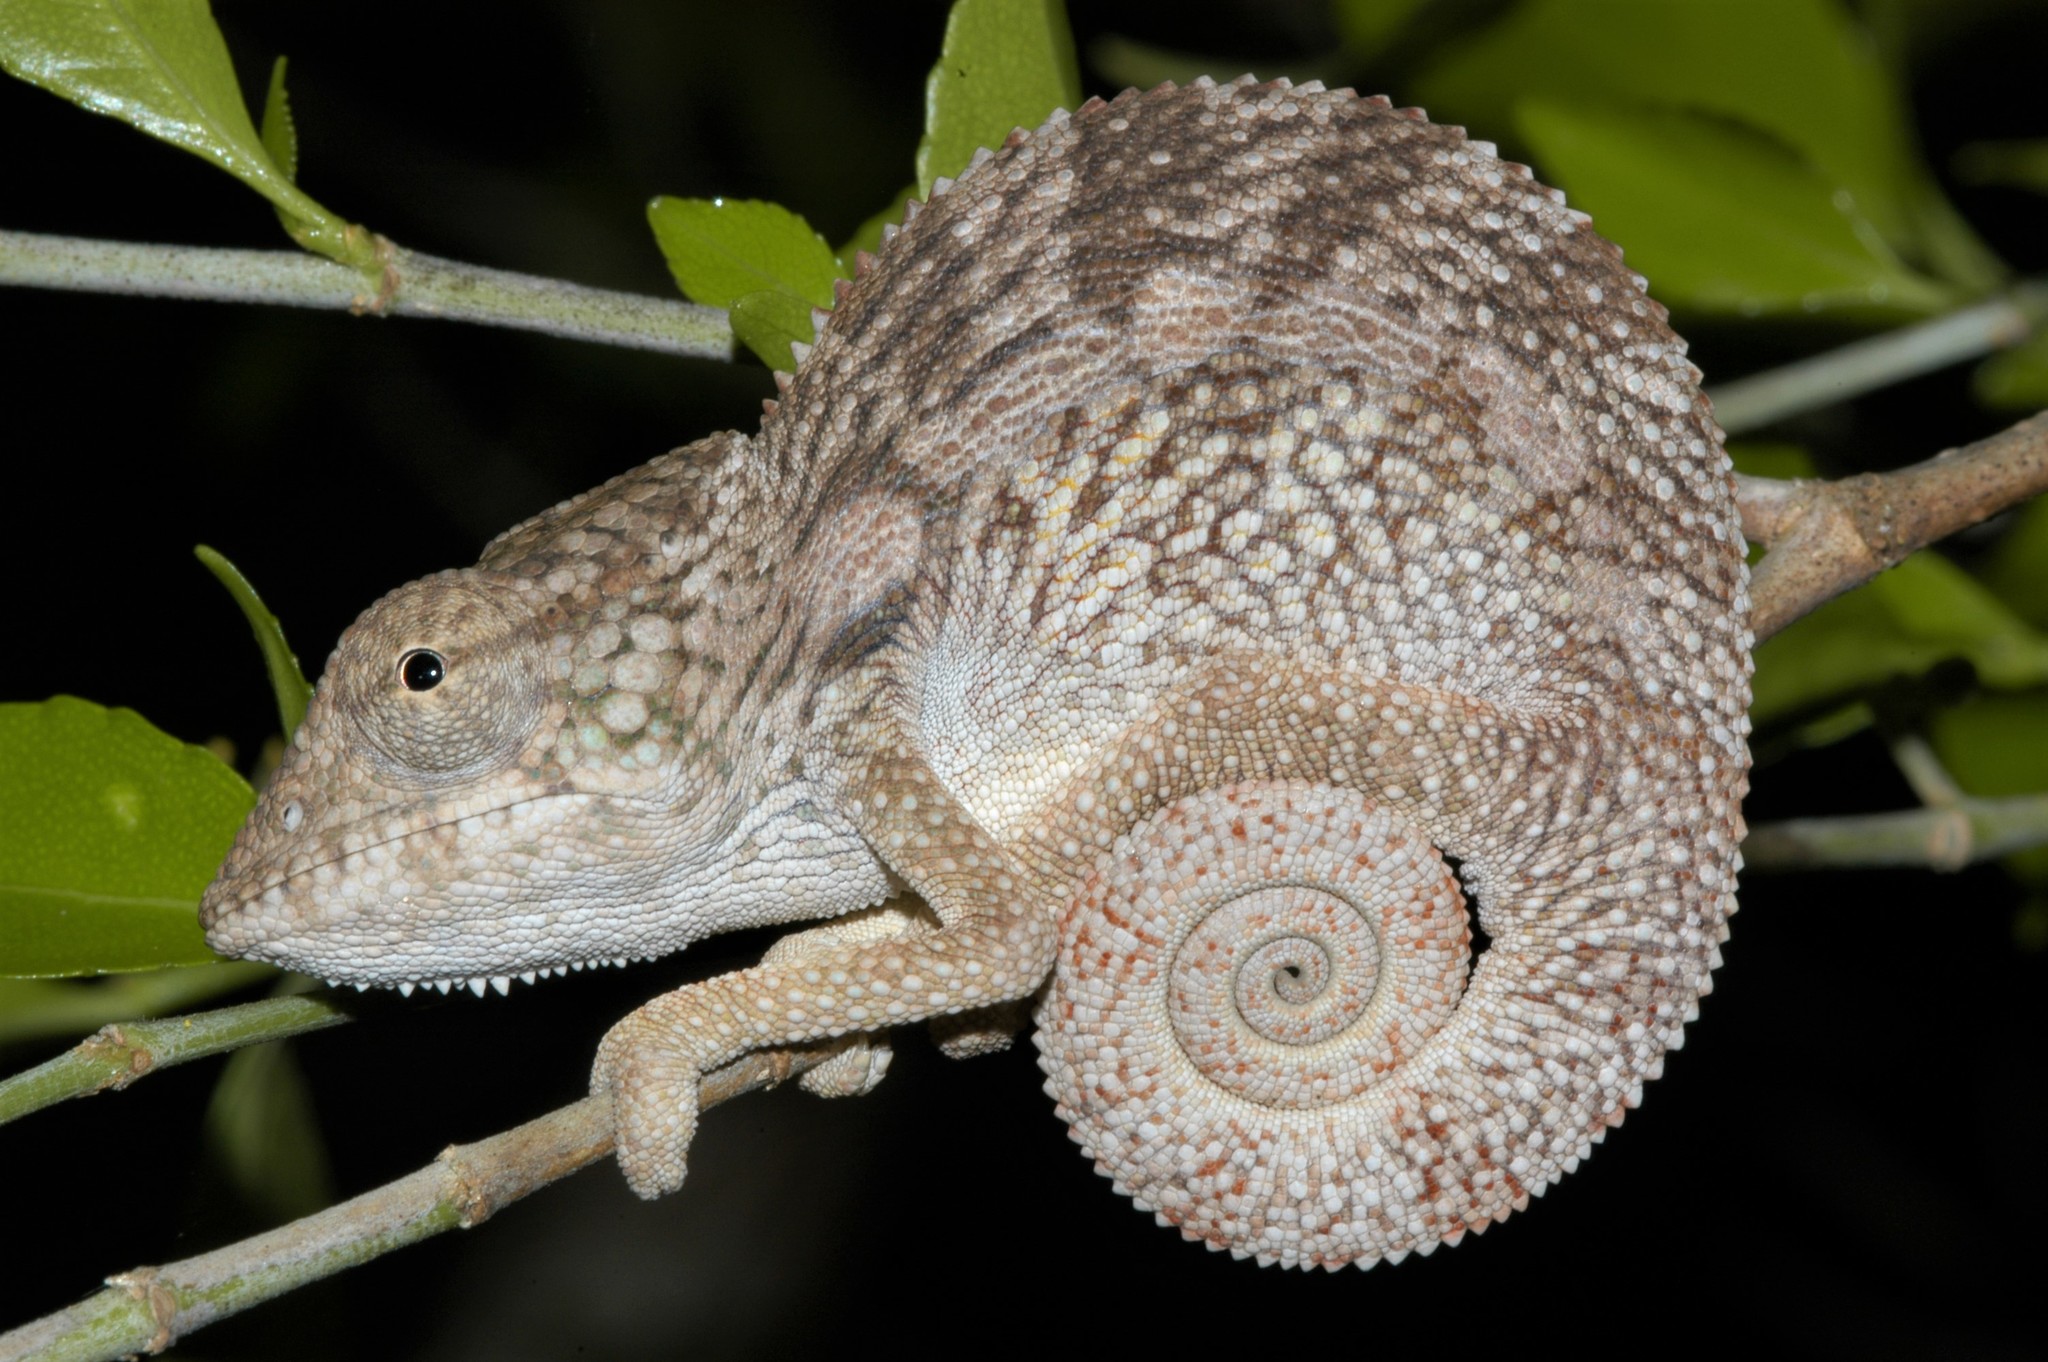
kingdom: Animalia
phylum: Chordata
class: Squamata
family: Chamaeleonidae
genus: Furcifer
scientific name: Furcifer nicosiai
